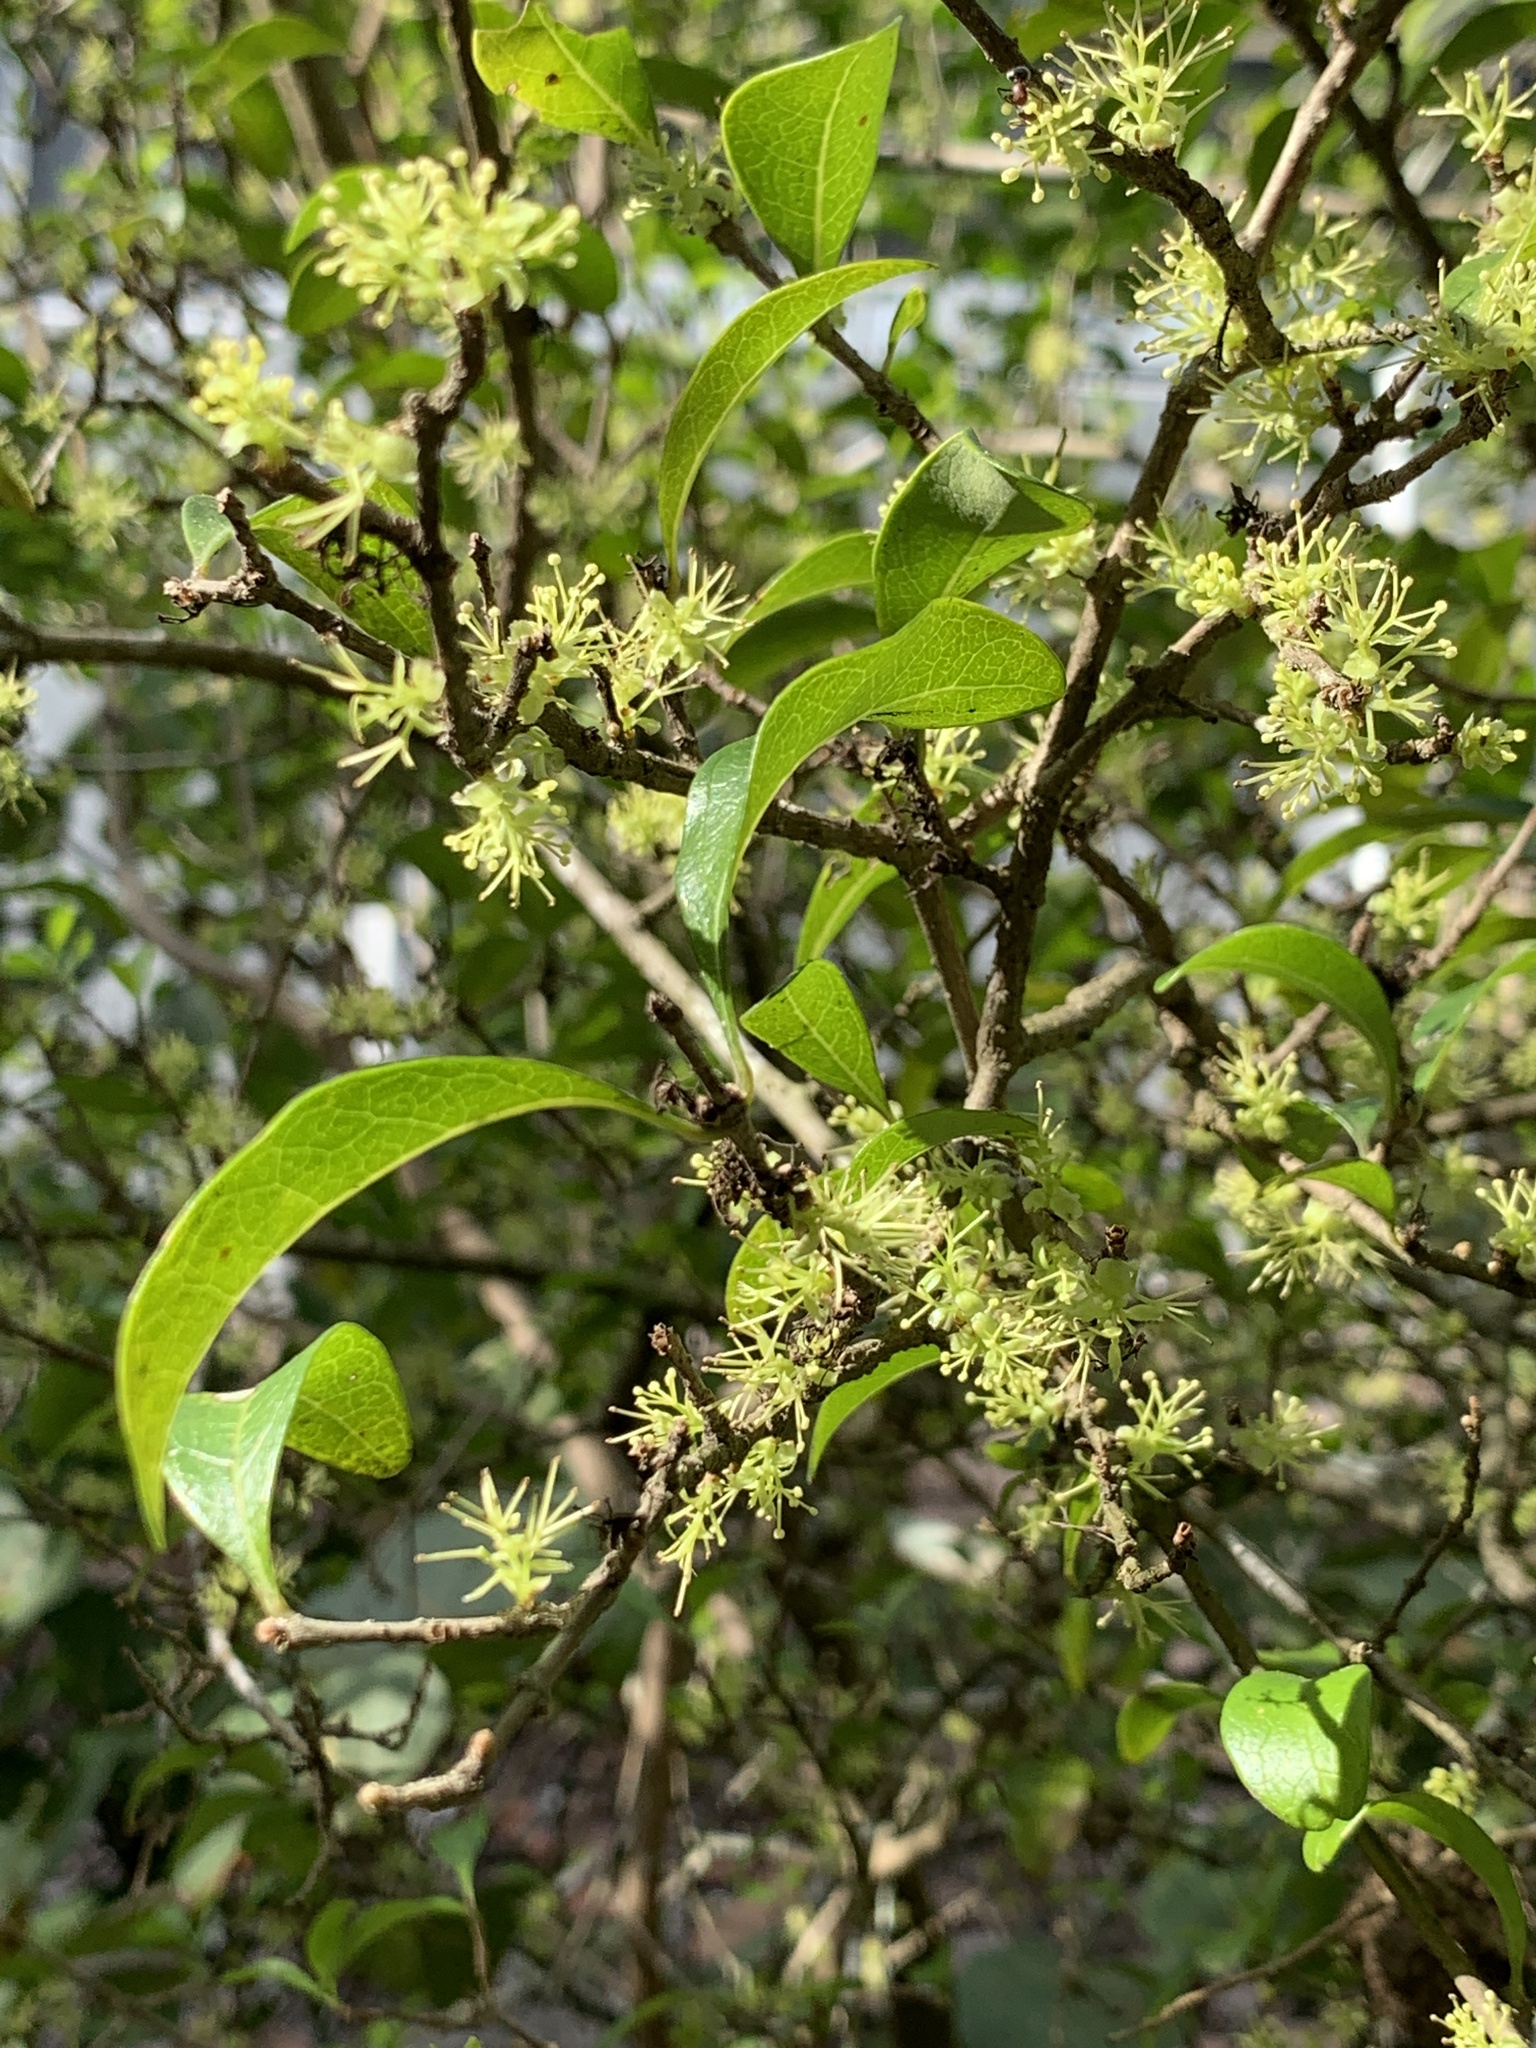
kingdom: Plantae
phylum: Tracheophyta
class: Magnoliopsida
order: Lamiales
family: Oleaceae
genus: Forestiera
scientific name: Forestiera segregata
